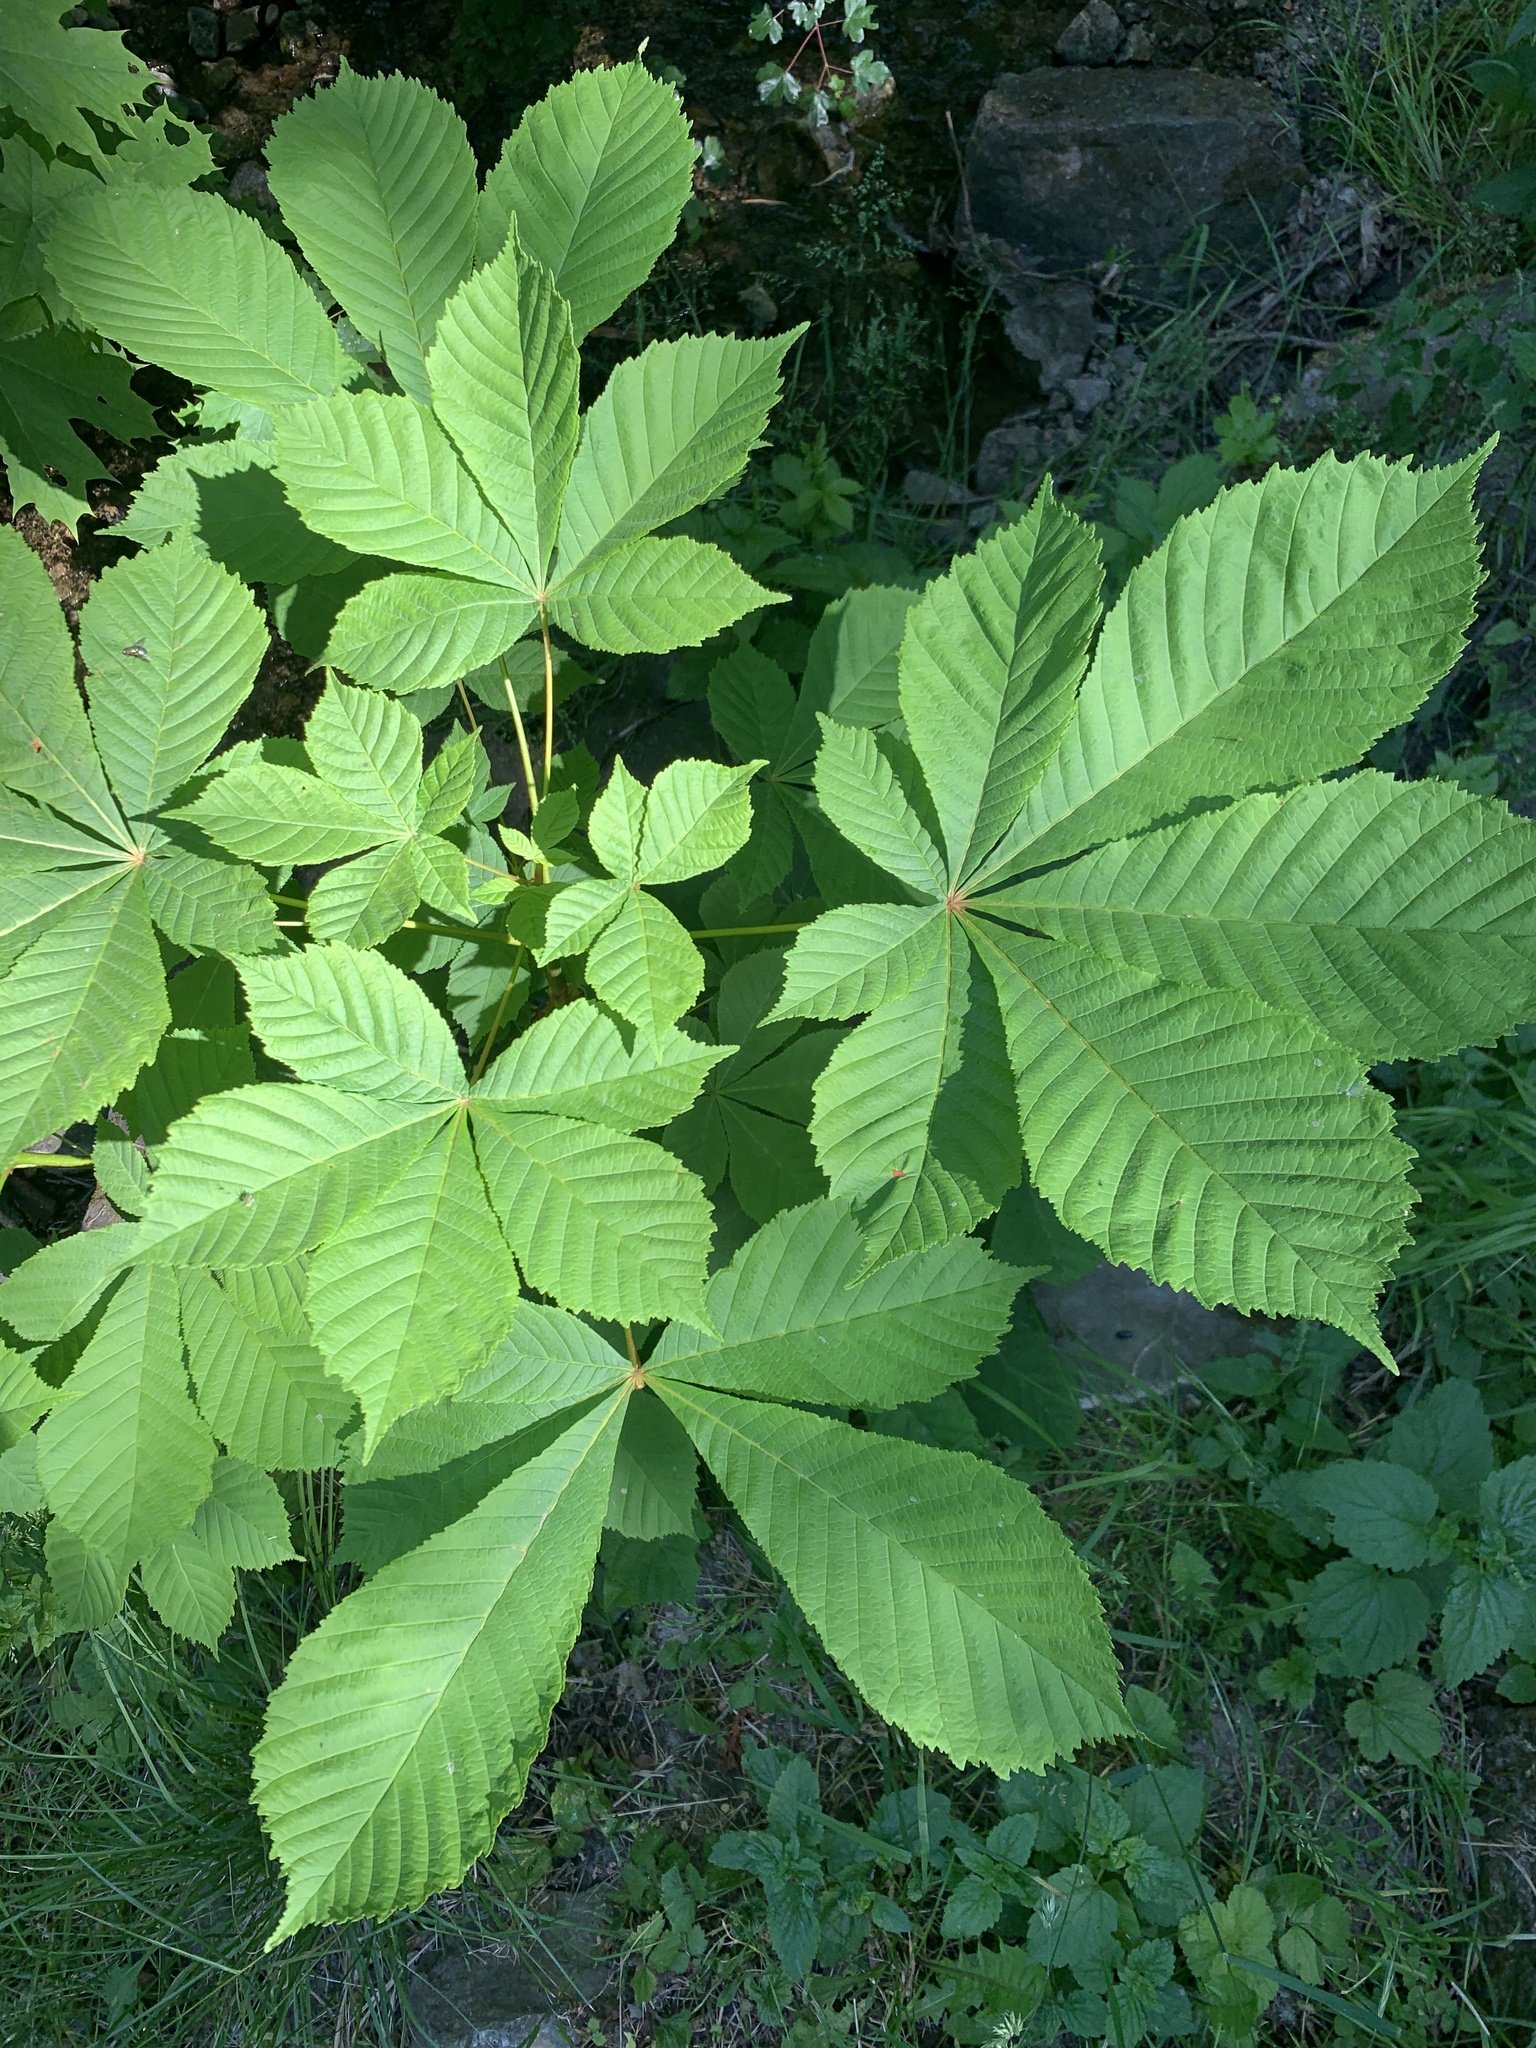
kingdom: Plantae
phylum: Tracheophyta
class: Magnoliopsida
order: Sapindales
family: Sapindaceae
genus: Aesculus
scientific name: Aesculus hippocastanum
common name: Horse-chestnut
